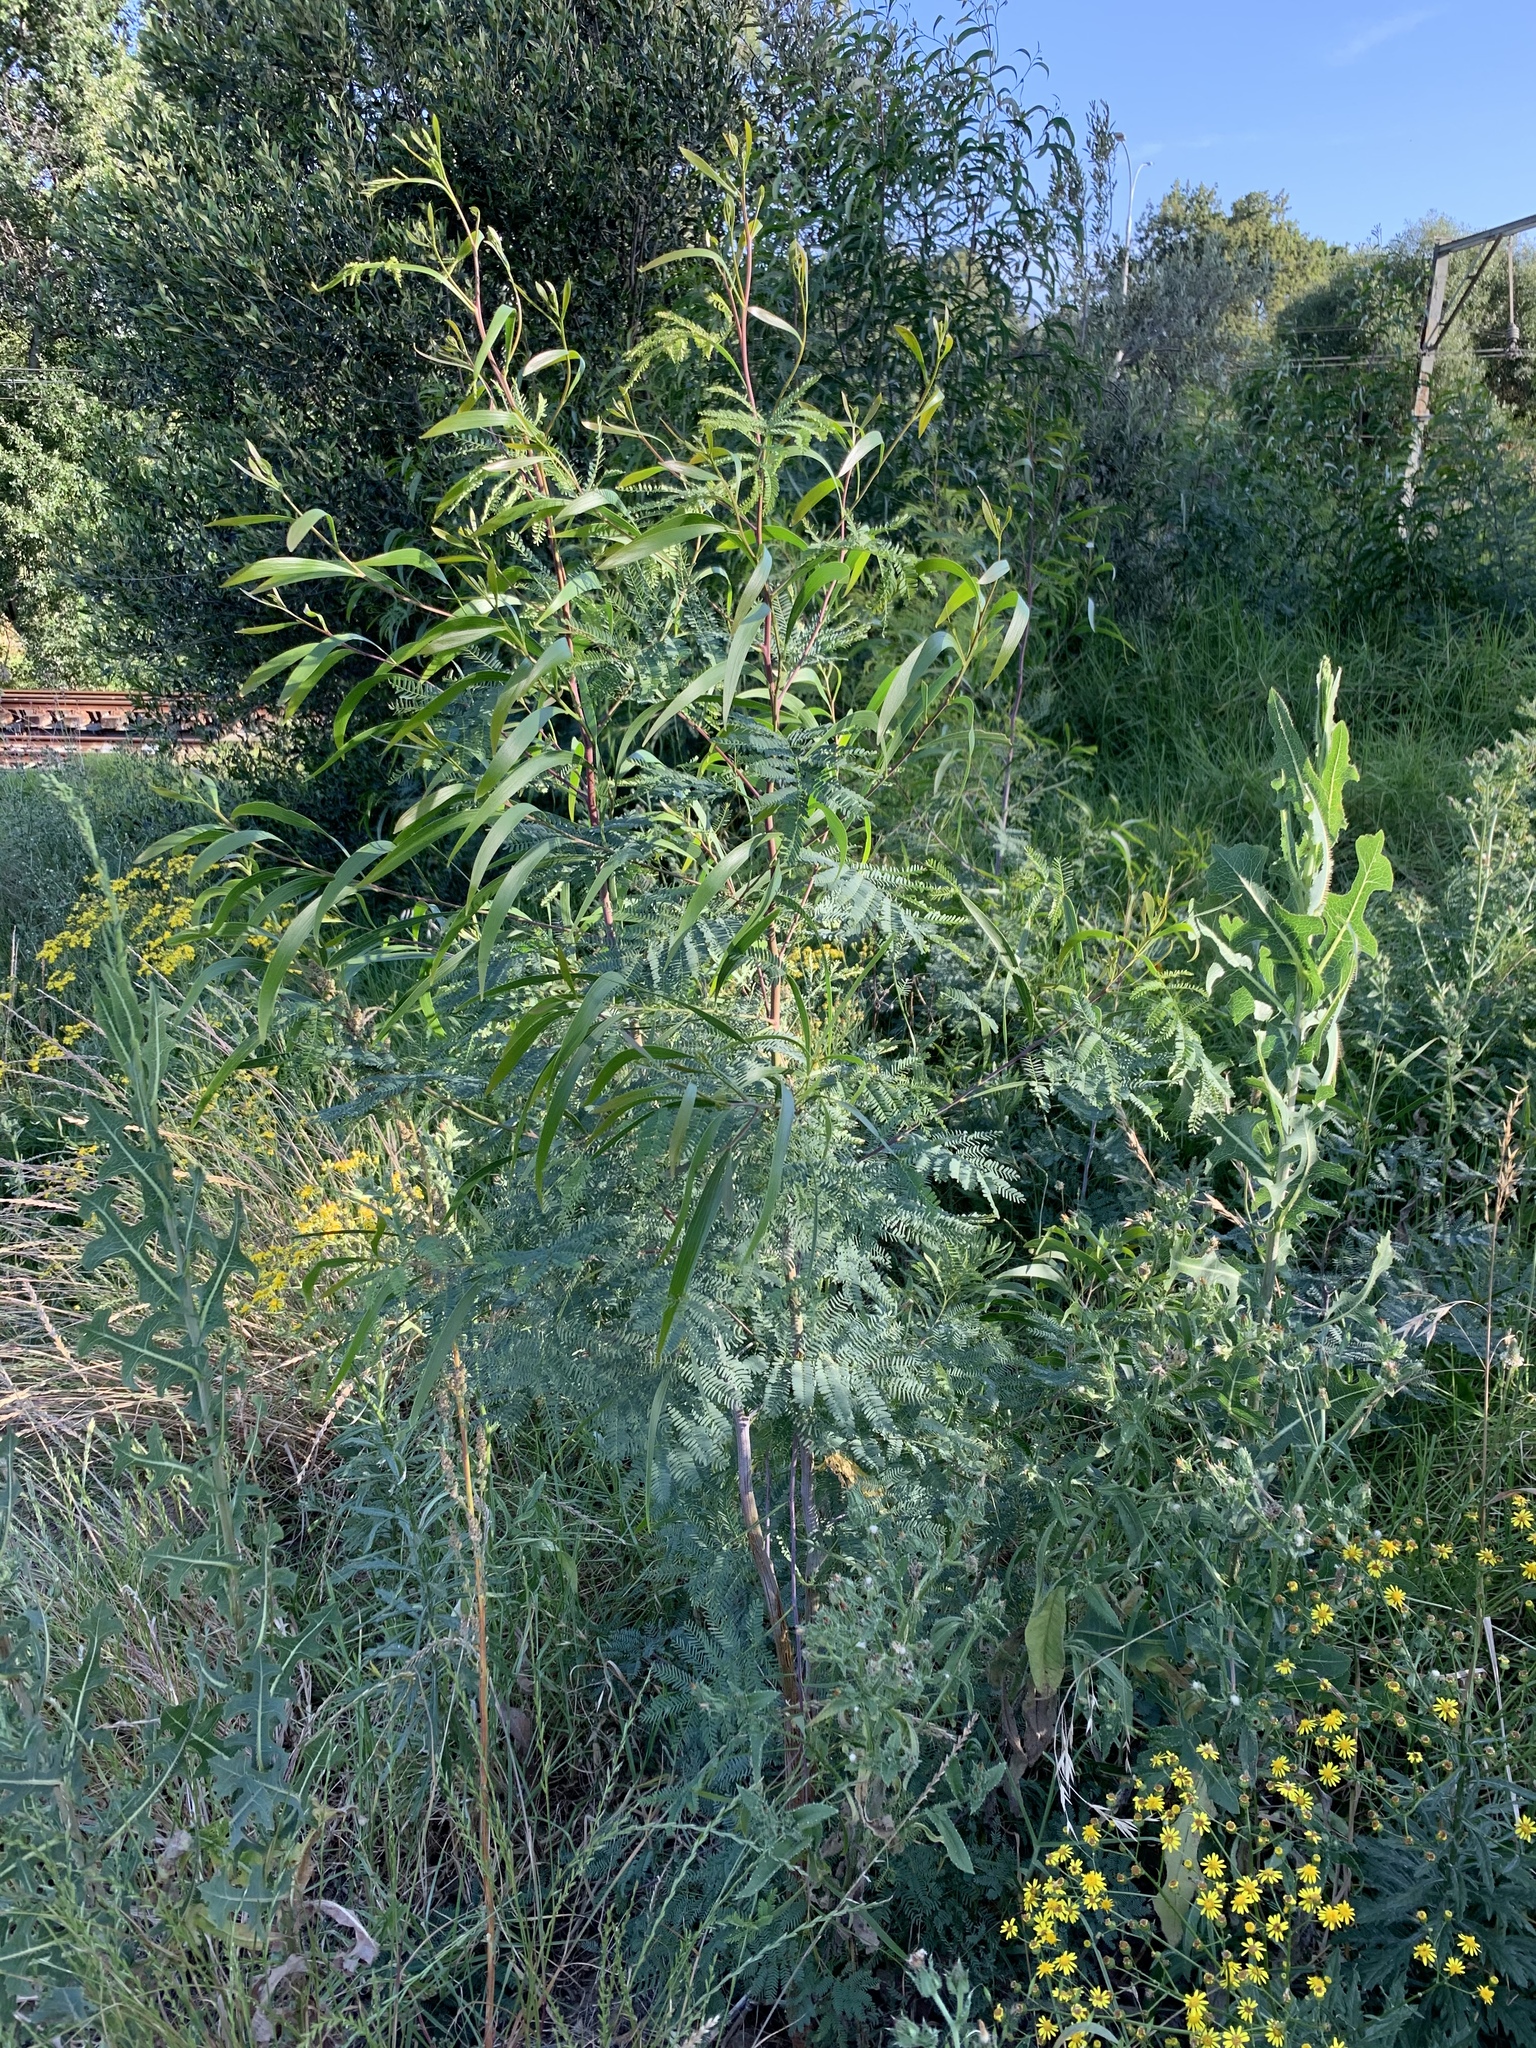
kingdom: Plantae
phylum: Tracheophyta
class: Magnoliopsida
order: Fabales
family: Fabaceae
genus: Acacia
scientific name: Acacia implexa
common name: Black wattle
